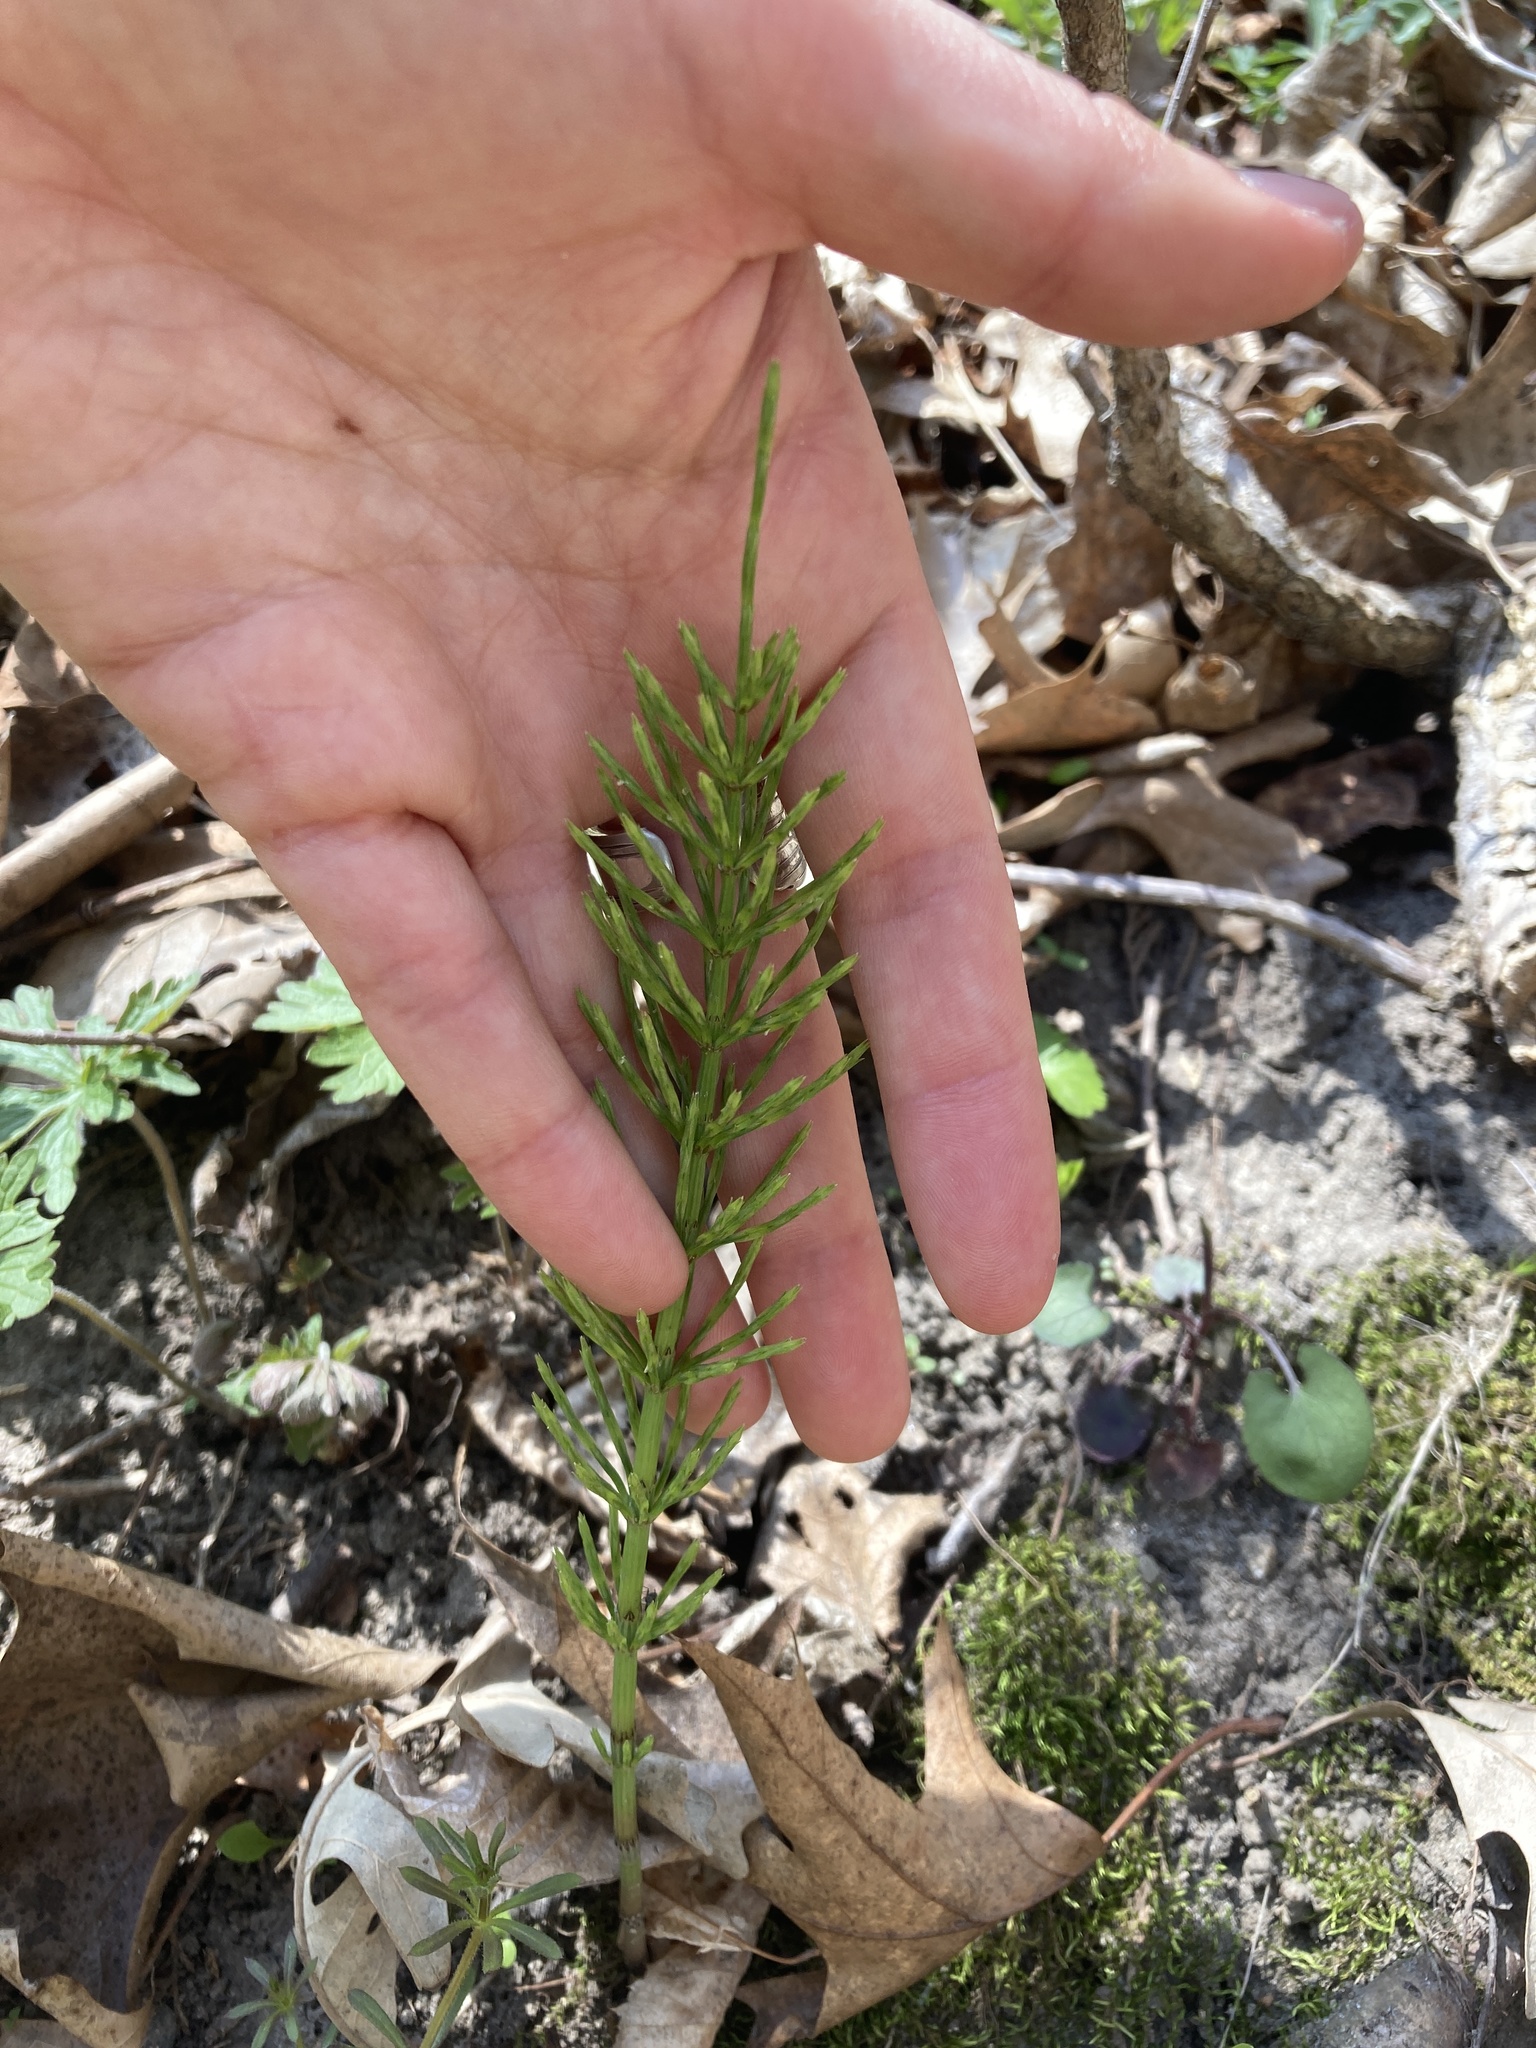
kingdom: Plantae
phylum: Tracheophyta
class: Polypodiopsida
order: Equisetales
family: Equisetaceae
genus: Equisetum
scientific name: Equisetum arvense
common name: Field horsetail
